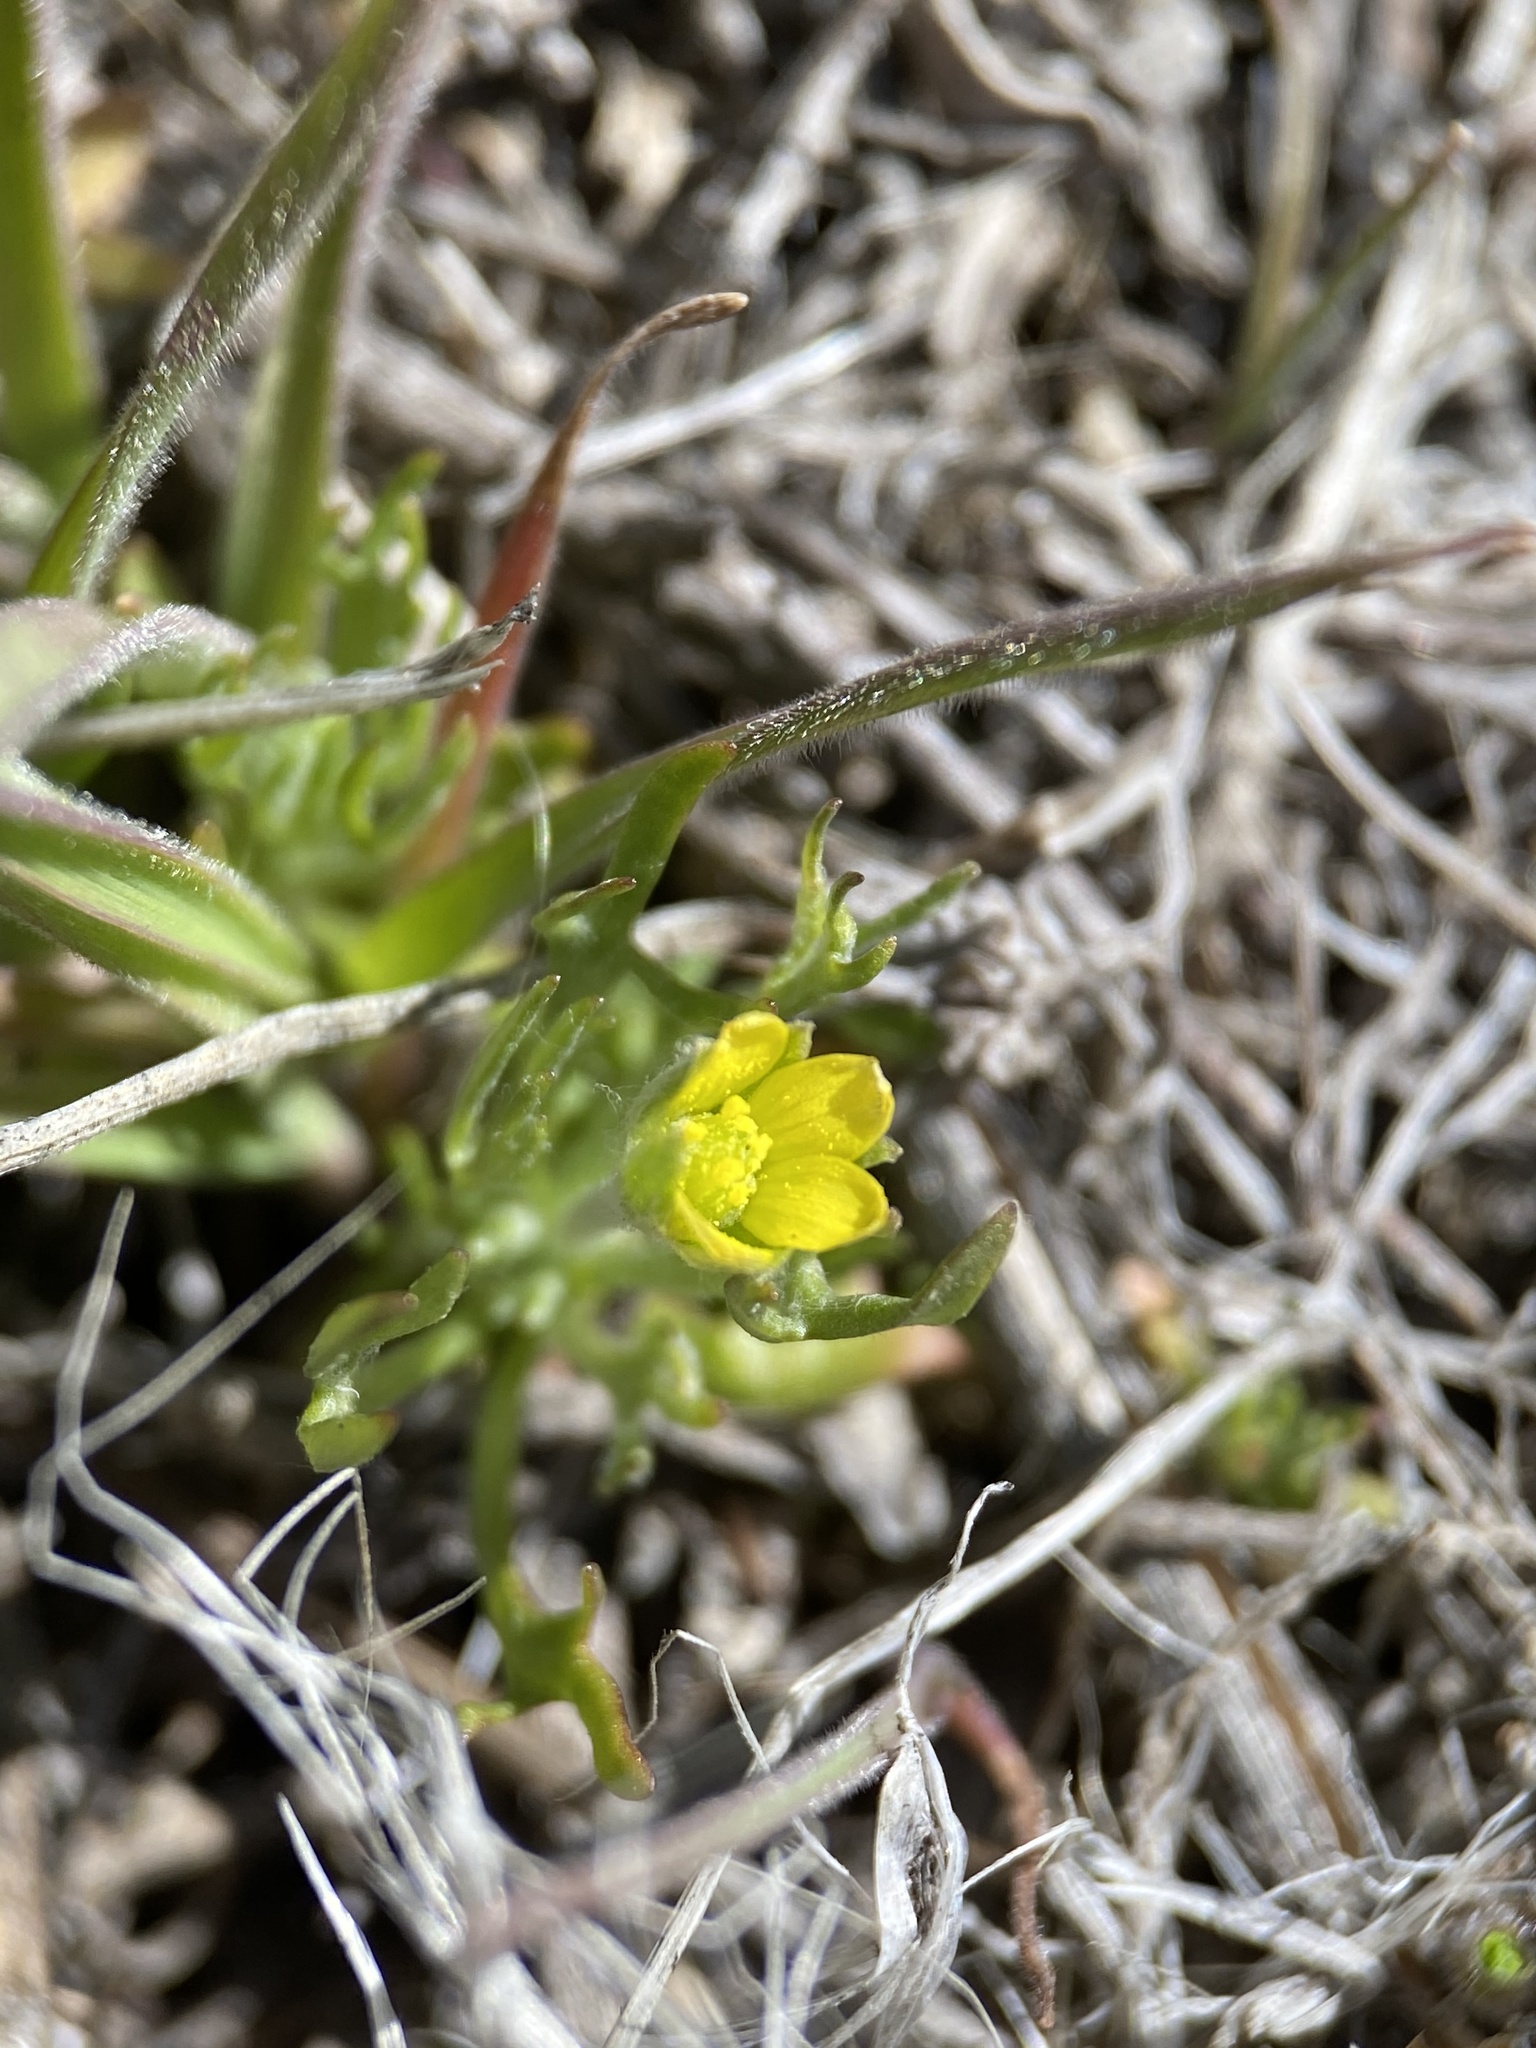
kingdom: Plantae
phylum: Tracheophyta
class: Magnoliopsida
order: Ranunculales
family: Ranunculaceae
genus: Ceratocephala
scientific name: Ceratocephala orthoceras
